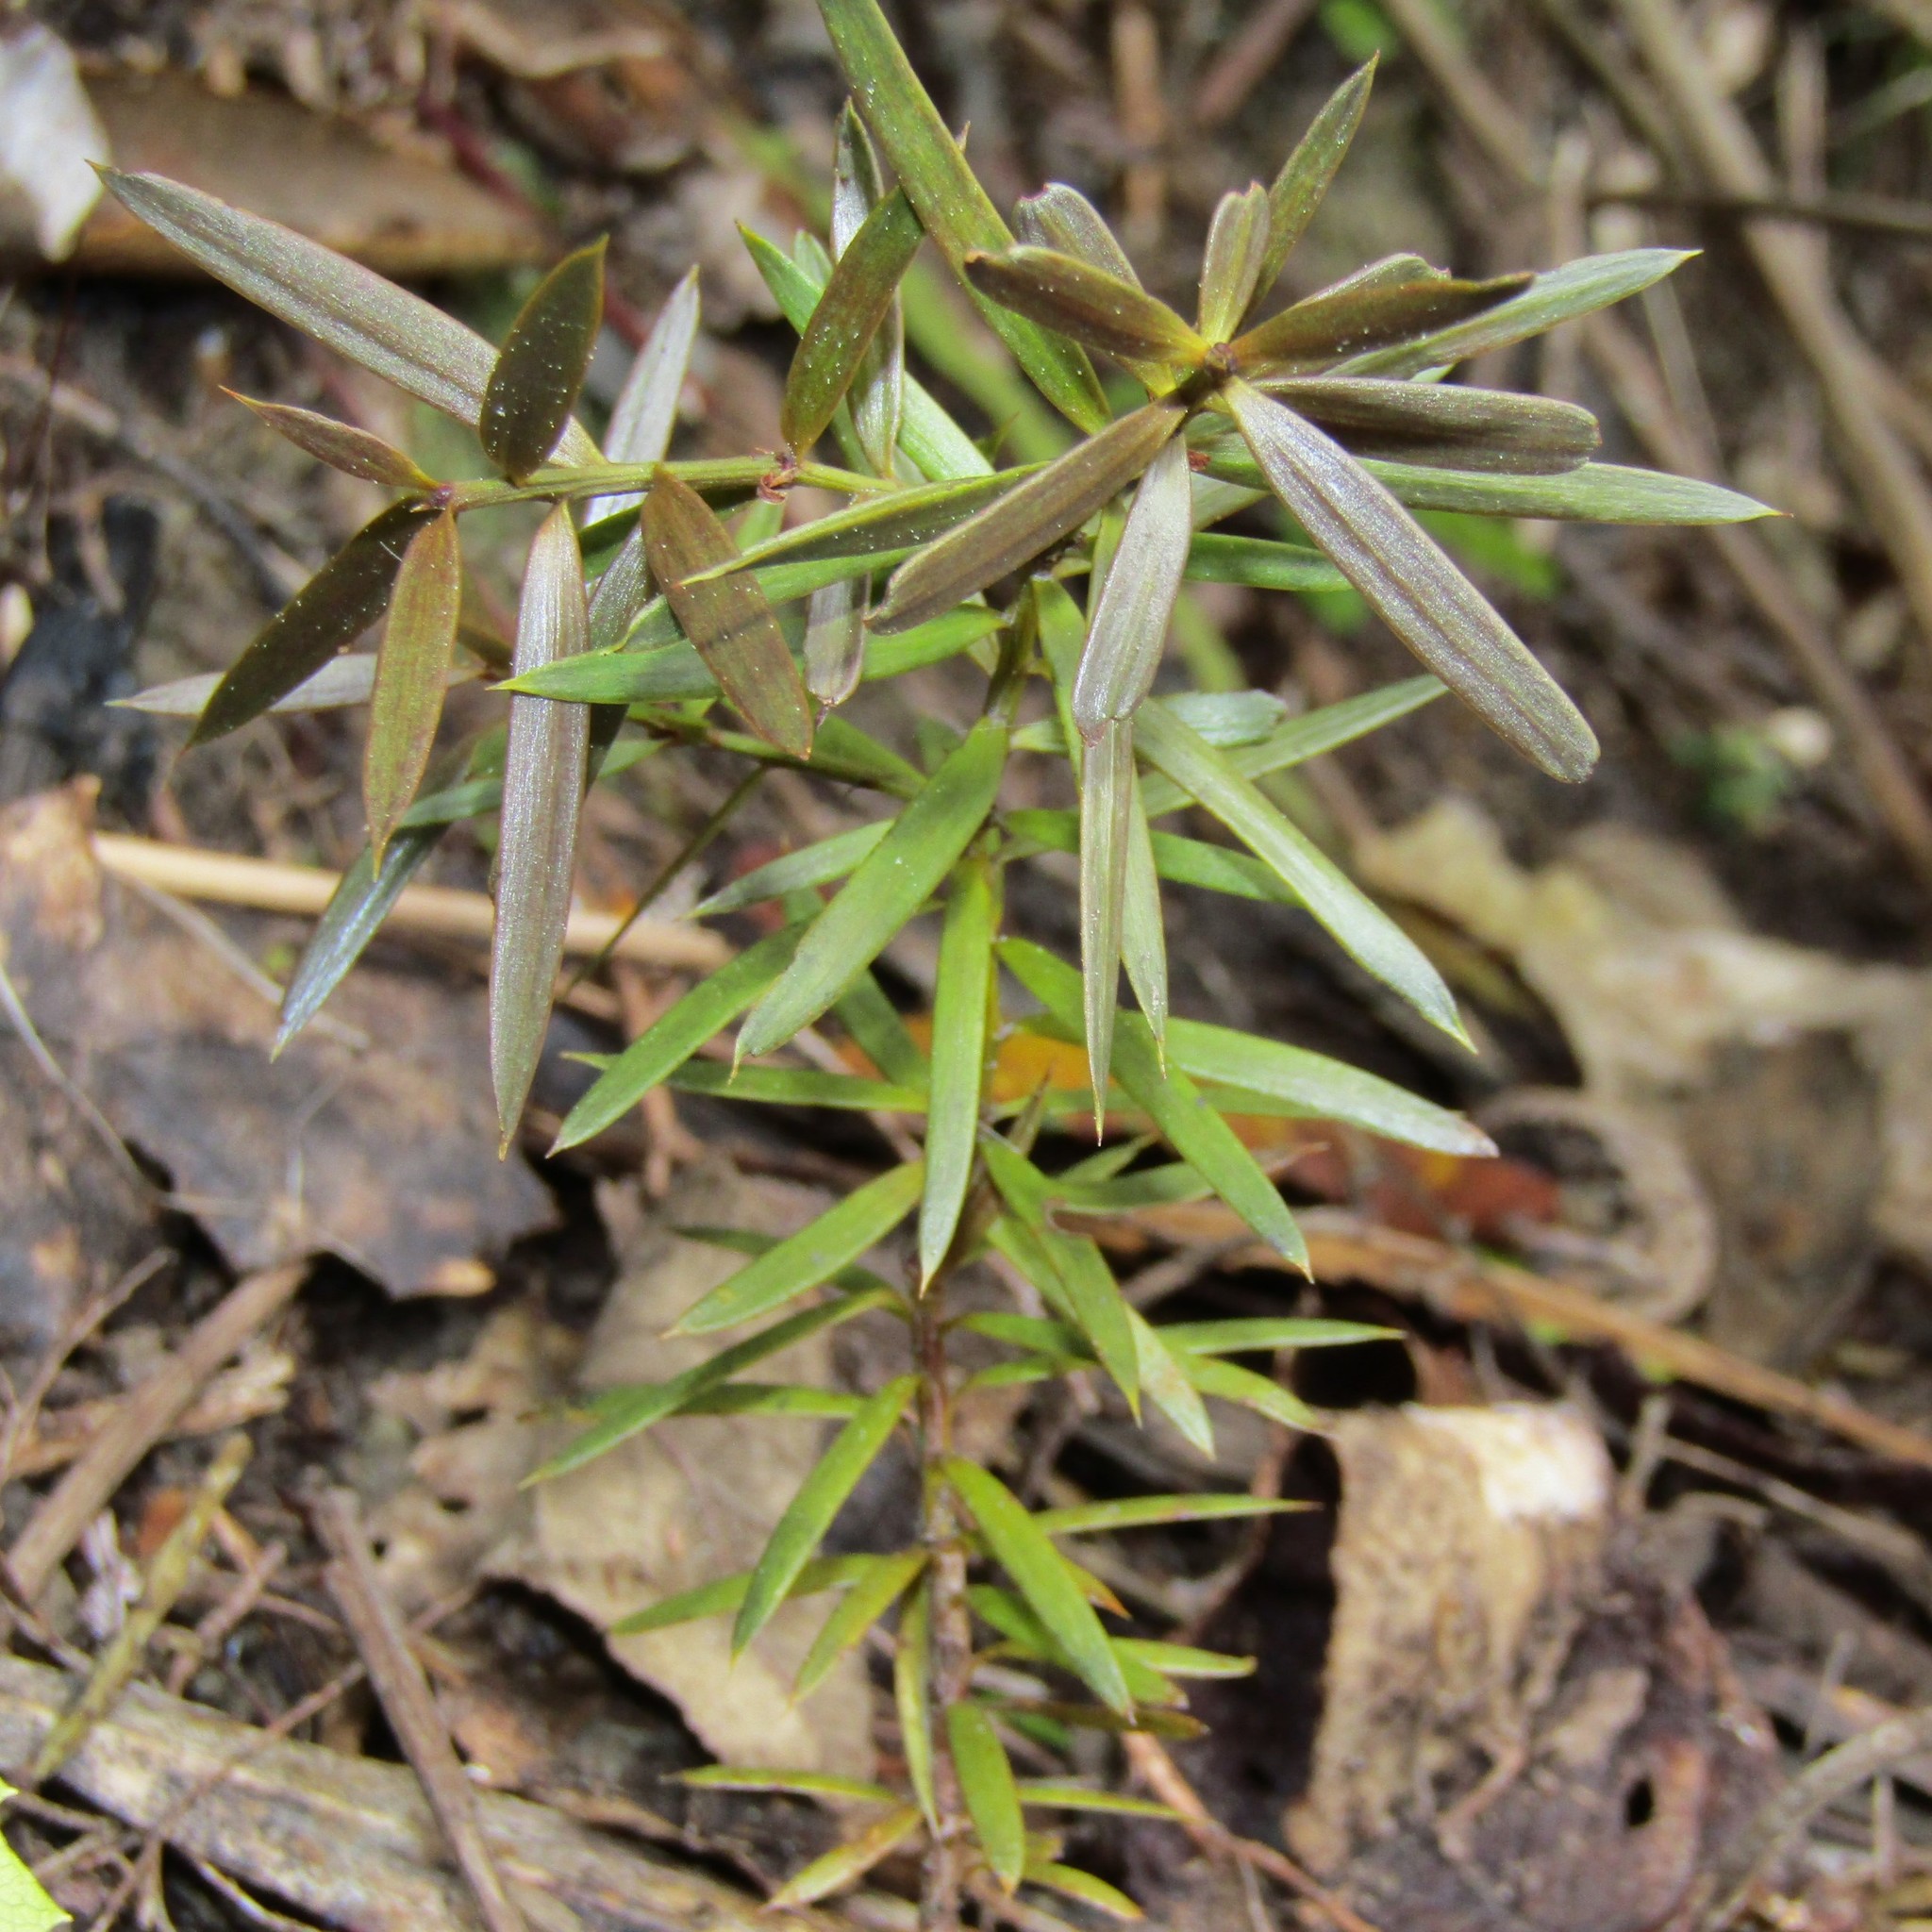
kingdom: Plantae
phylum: Tracheophyta
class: Pinopsida
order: Pinales
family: Podocarpaceae
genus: Podocarpus
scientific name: Podocarpus totara
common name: Totara
